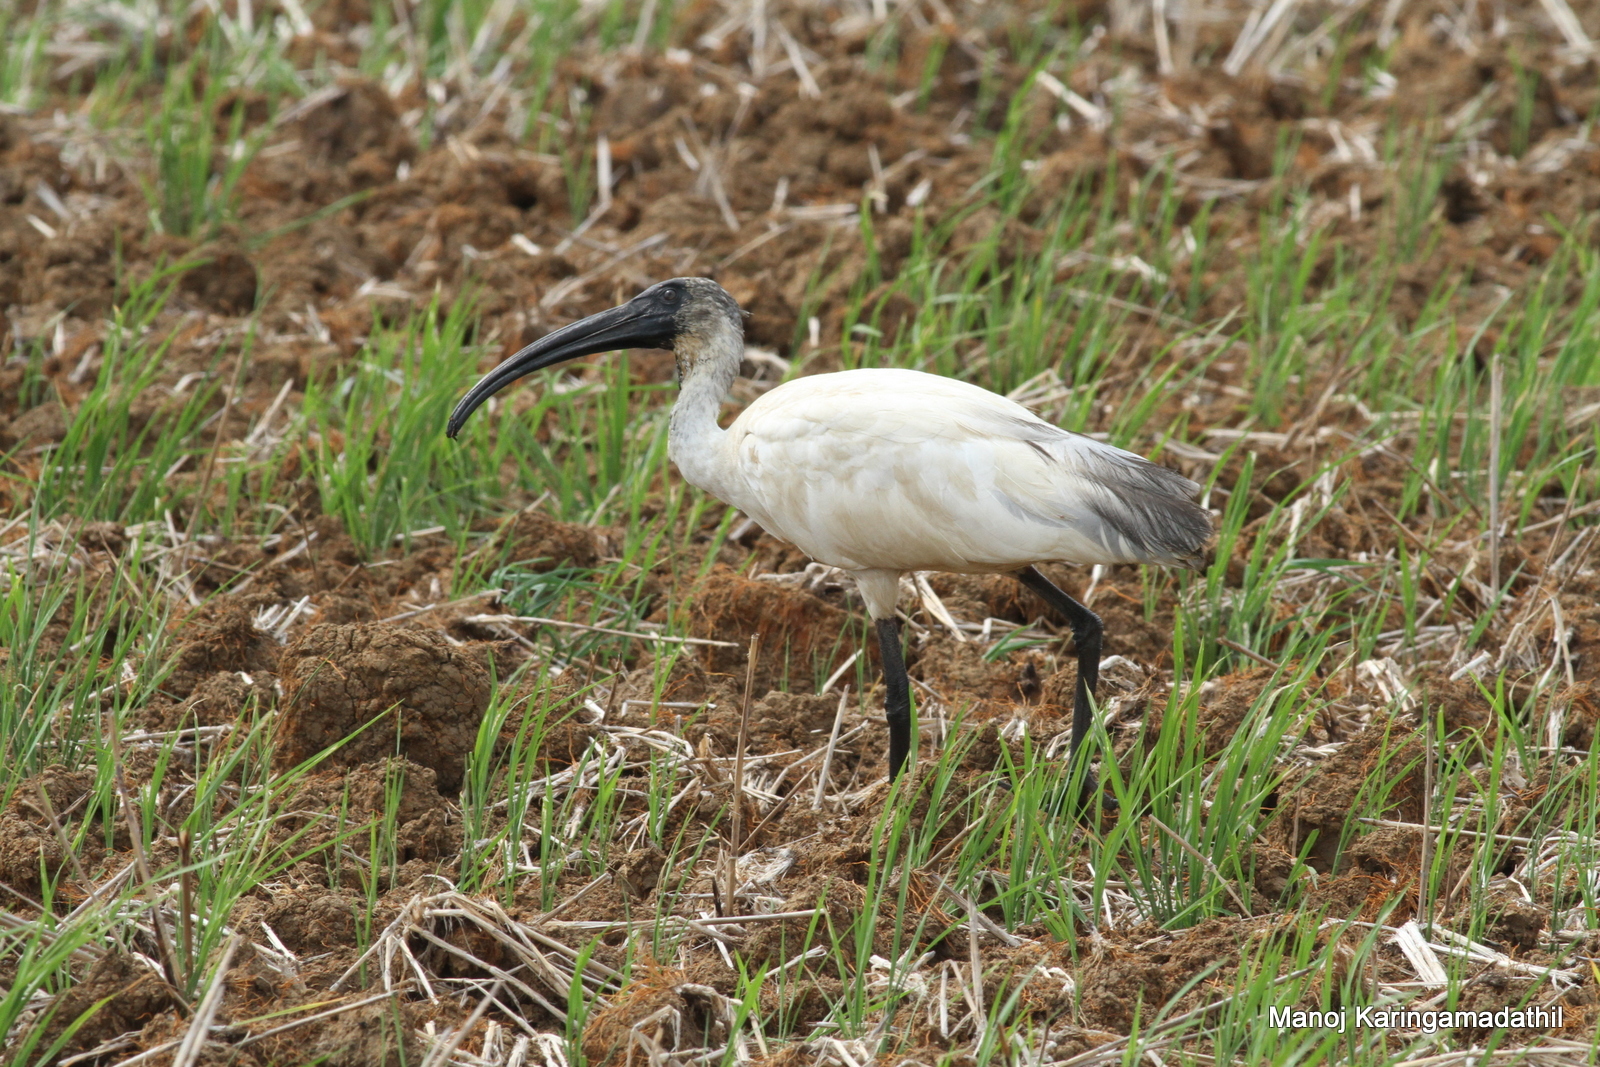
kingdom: Animalia
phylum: Chordata
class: Aves
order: Pelecaniformes
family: Threskiornithidae
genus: Threskiornis
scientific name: Threskiornis melanocephalus
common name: Black-headed ibis
